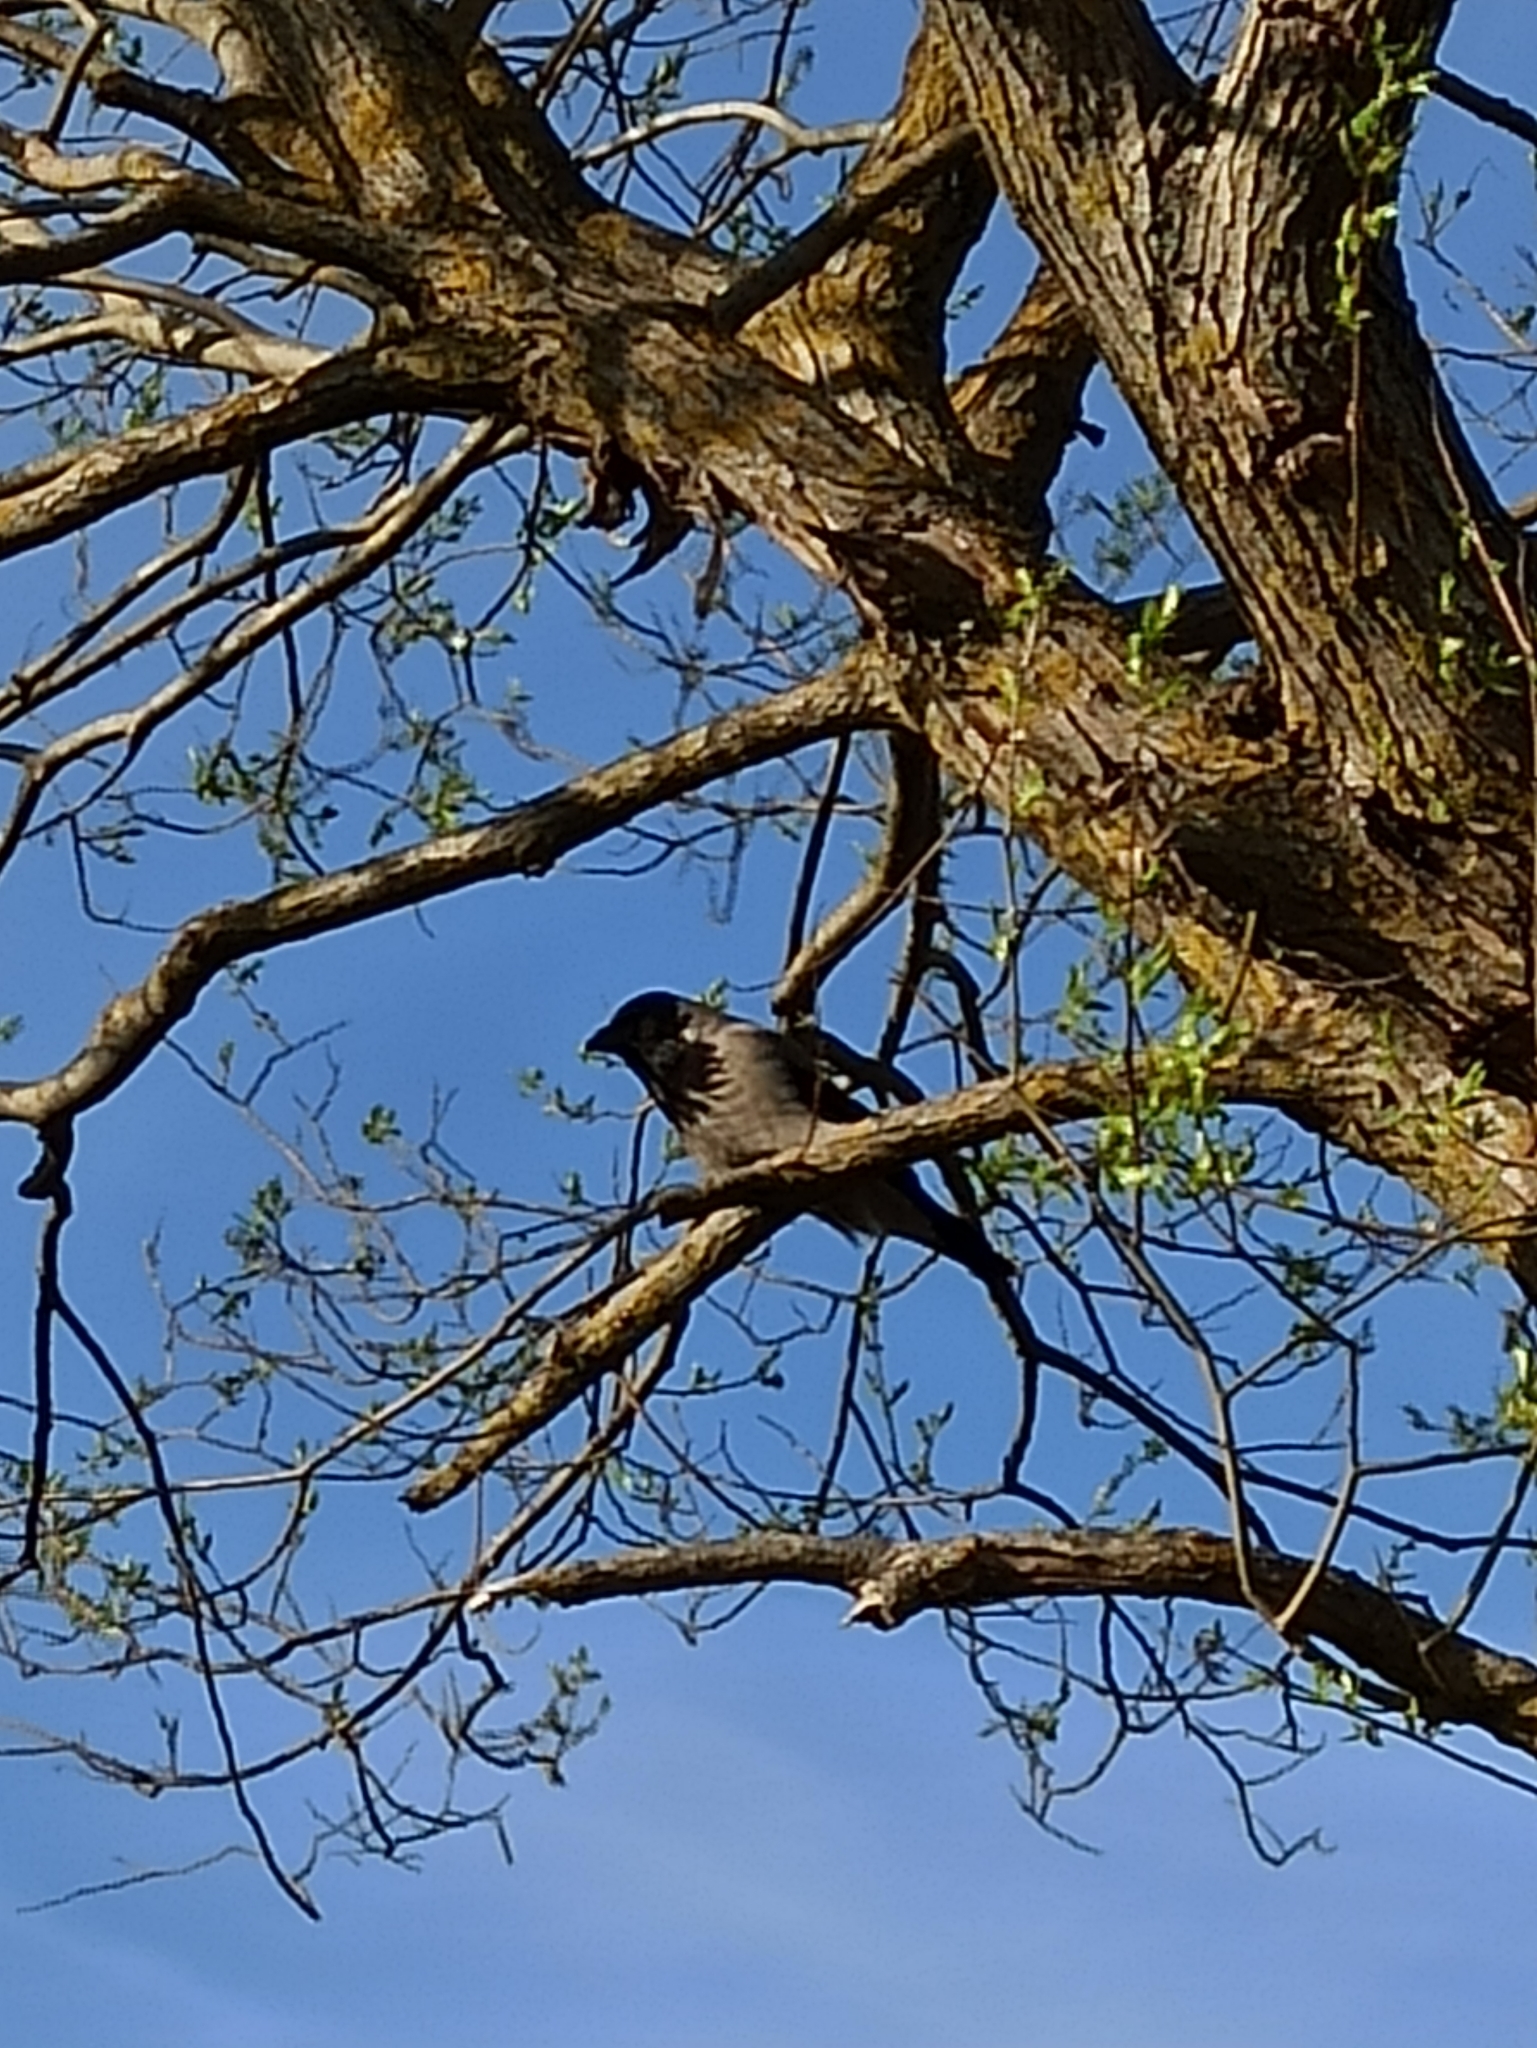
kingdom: Animalia
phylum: Chordata
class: Aves
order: Passeriformes
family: Corvidae
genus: Corvus
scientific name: Corvus cornix
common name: Hooded crow
